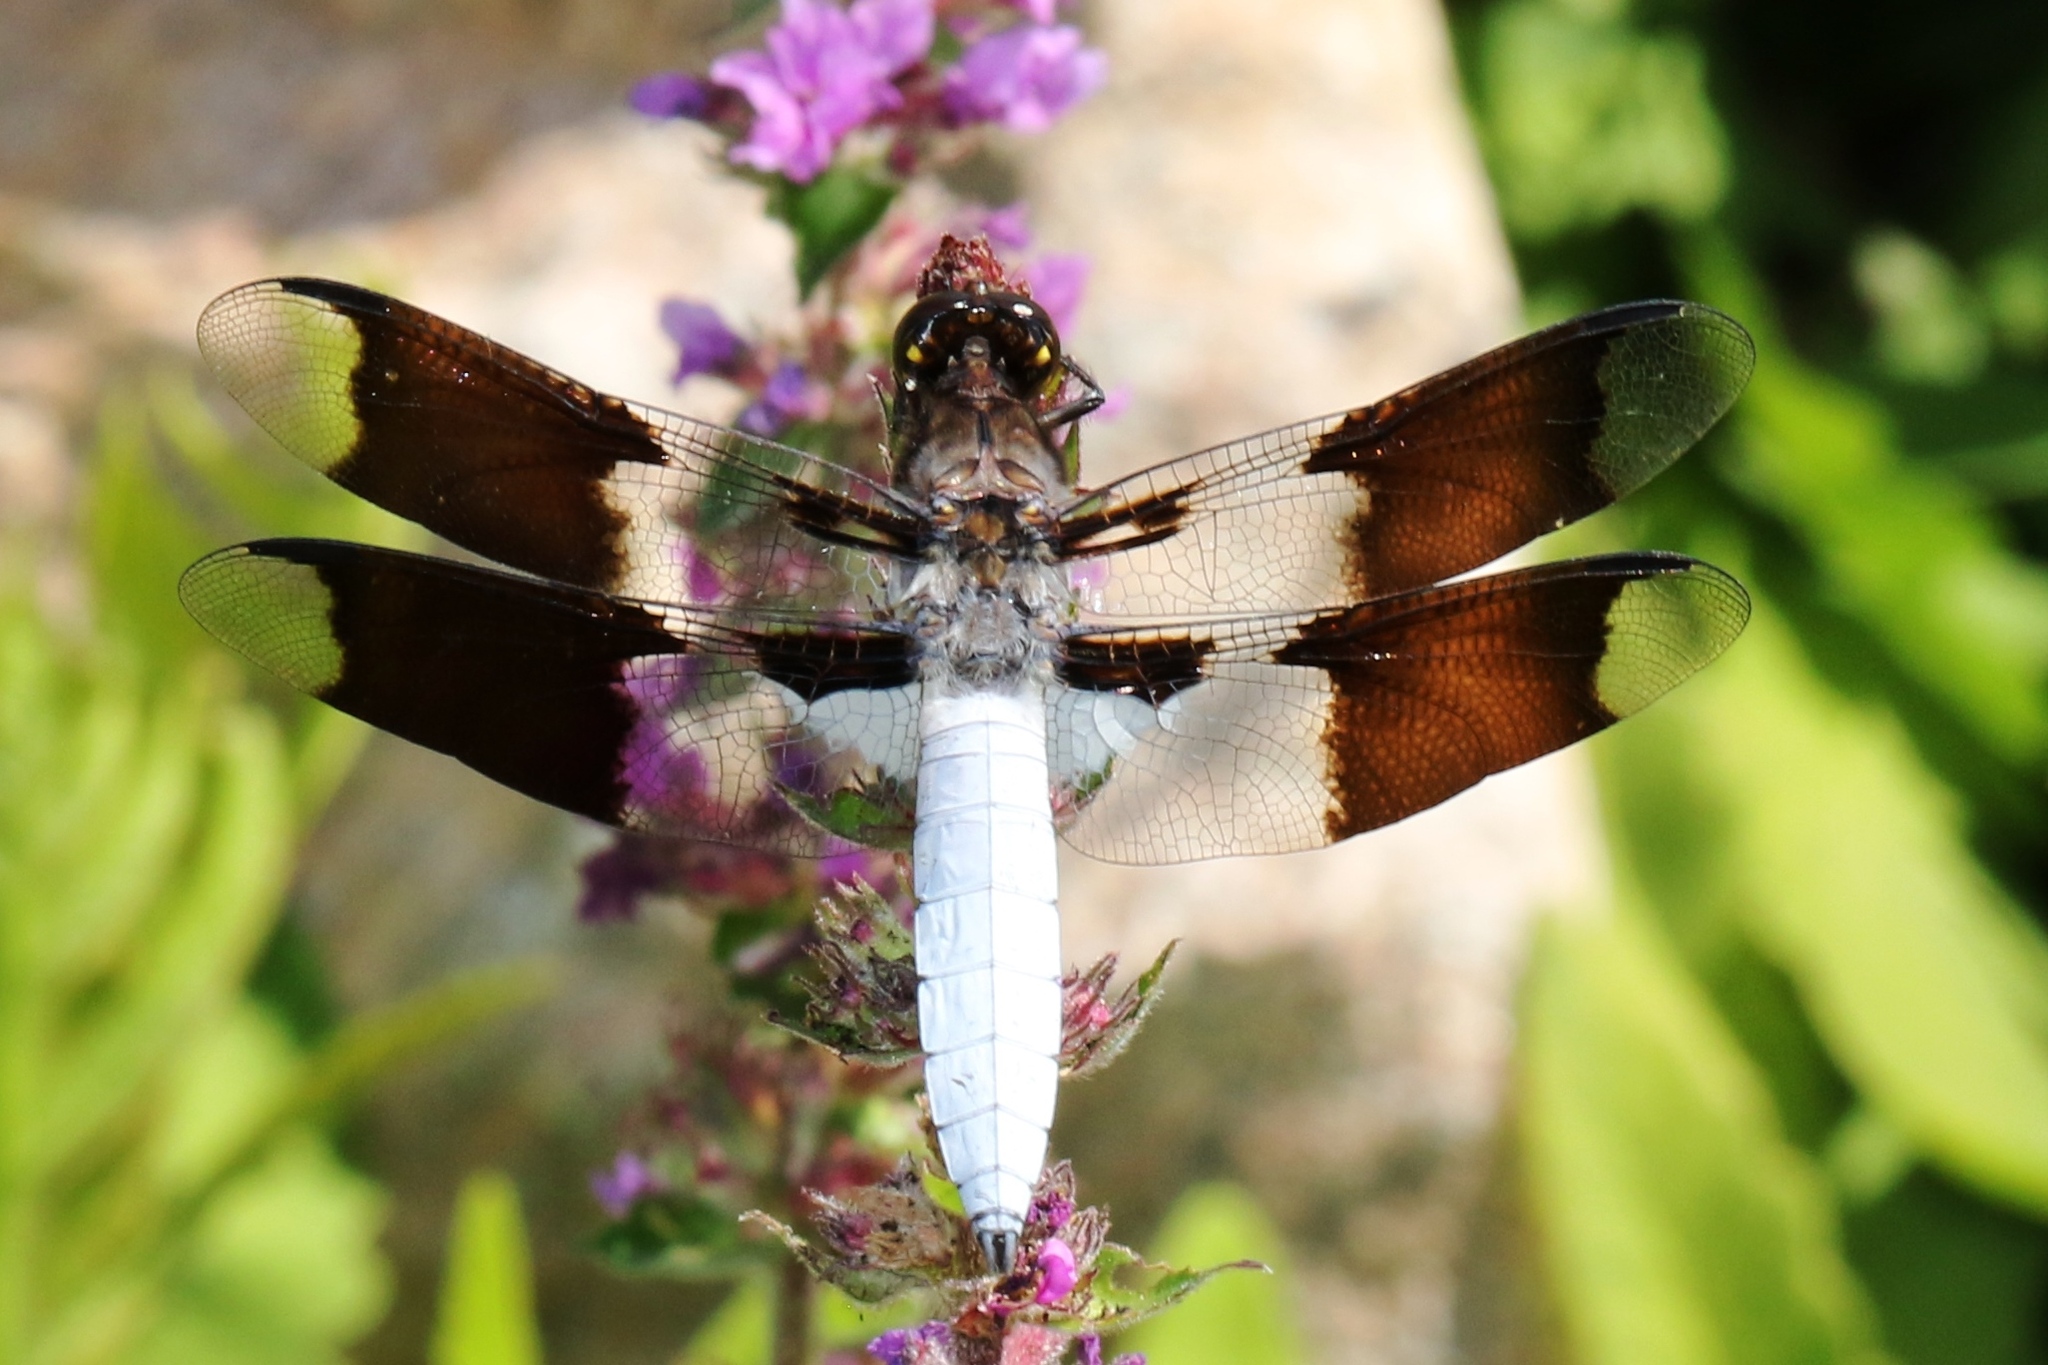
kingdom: Animalia
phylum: Arthropoda
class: Insecta
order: Odonata
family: Libellulidae
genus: Plathemis
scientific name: Plathemis lydia
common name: Common whitetail
